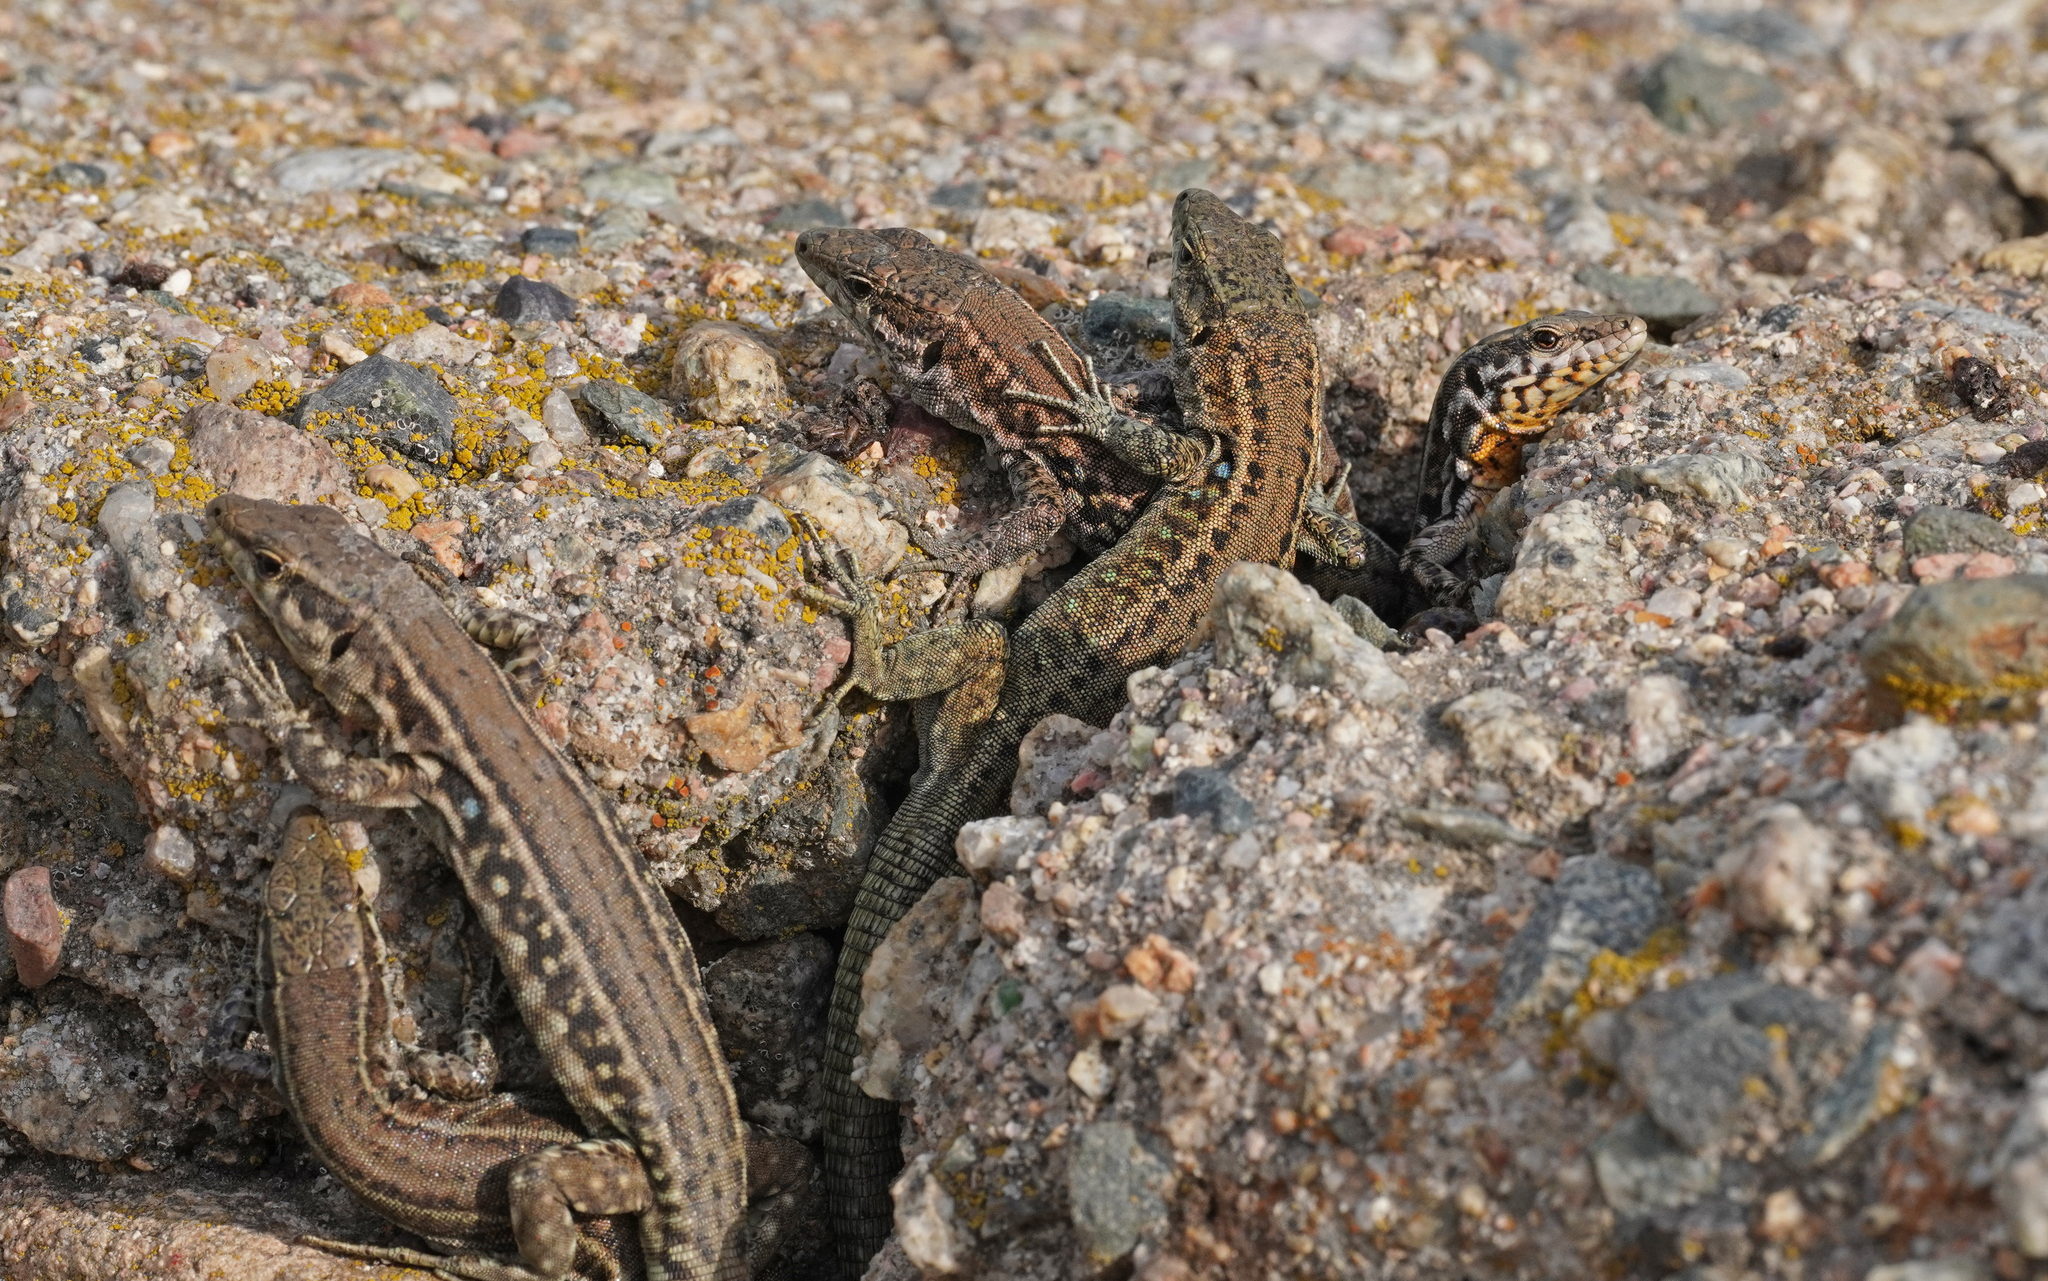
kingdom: Animalia
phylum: Chordata
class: Squamata
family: Lacertidae
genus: Podarcis
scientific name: Podarcis tiliguerta
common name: Tyrrhenian wall lizard
